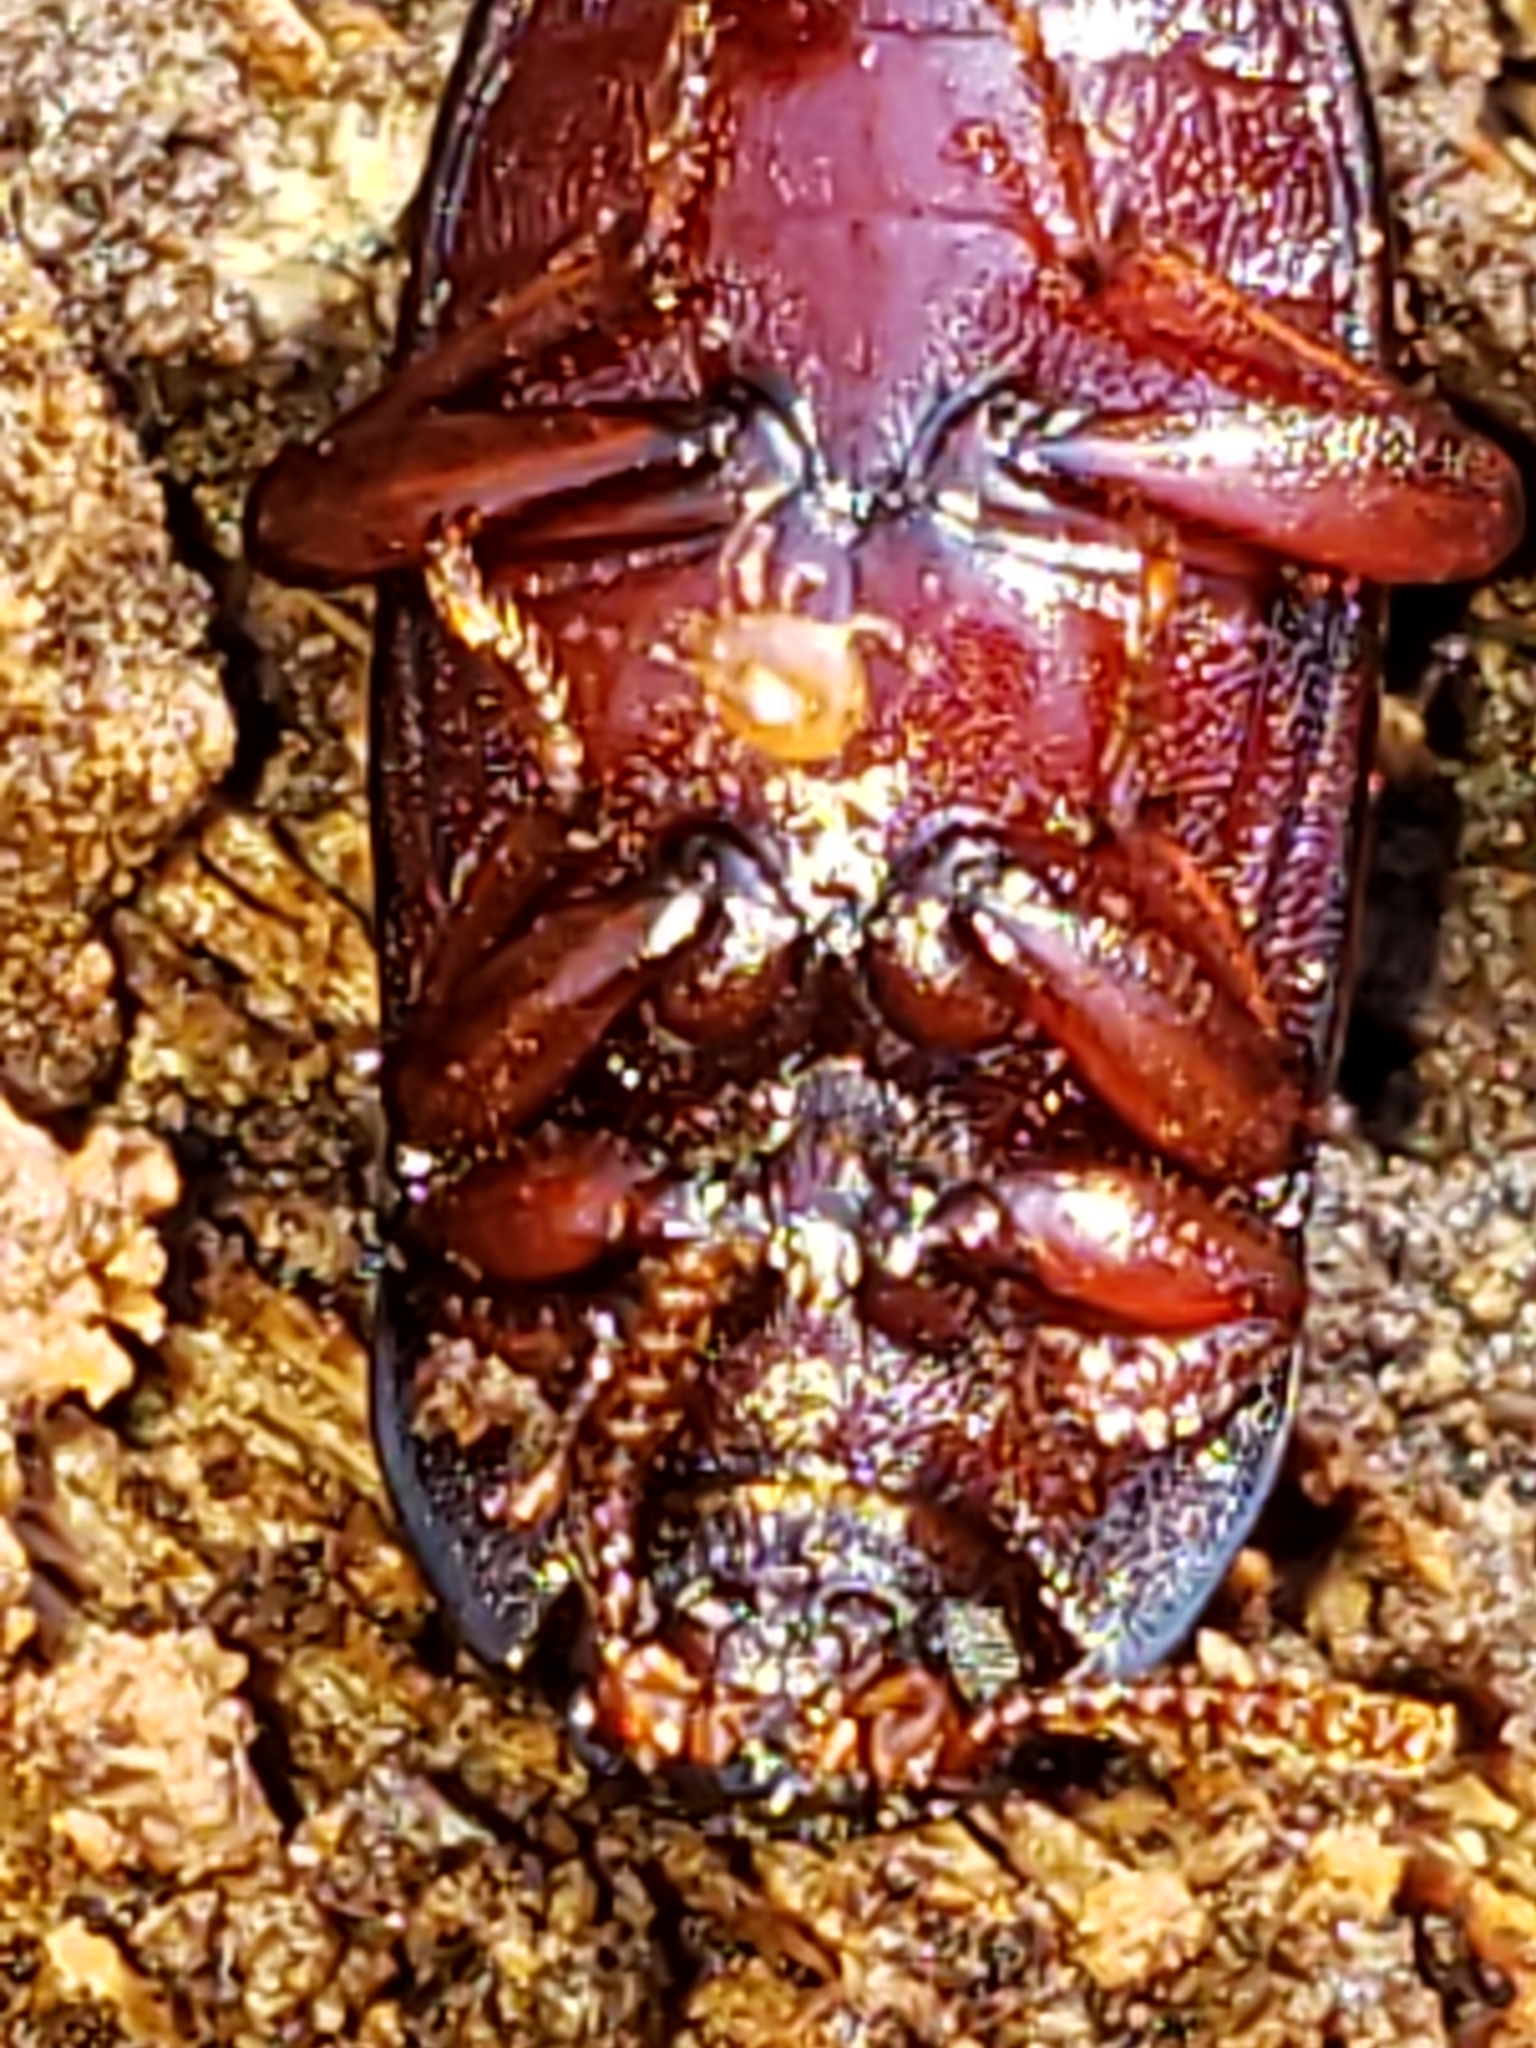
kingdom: Animalia
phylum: Arthropoda
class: Insecta
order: Coleoptera
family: Tenebrionidae
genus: Uloma
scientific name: Uloma imberbis
